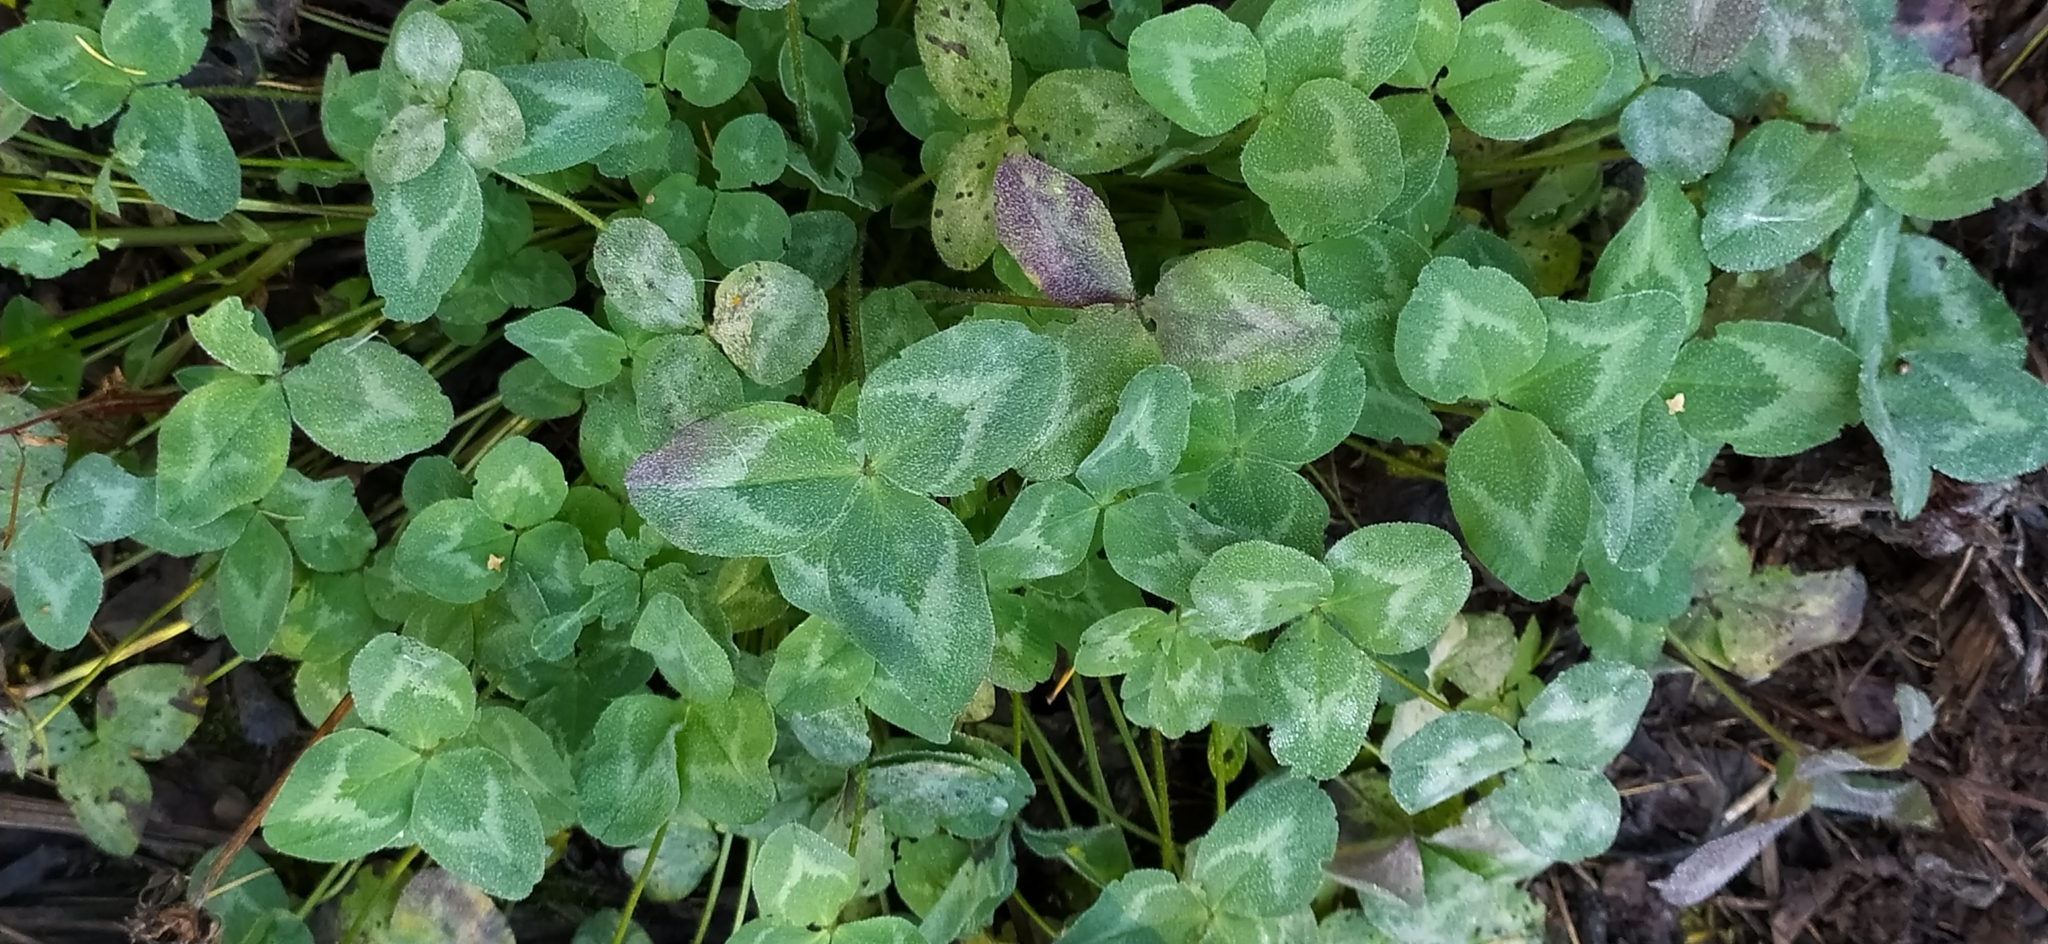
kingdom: Plantae
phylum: Tracheophyta
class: Magnoliopsida
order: Fabales
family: Fabaceae
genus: Trifolium
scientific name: Trifolium pratense
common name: Red clover
